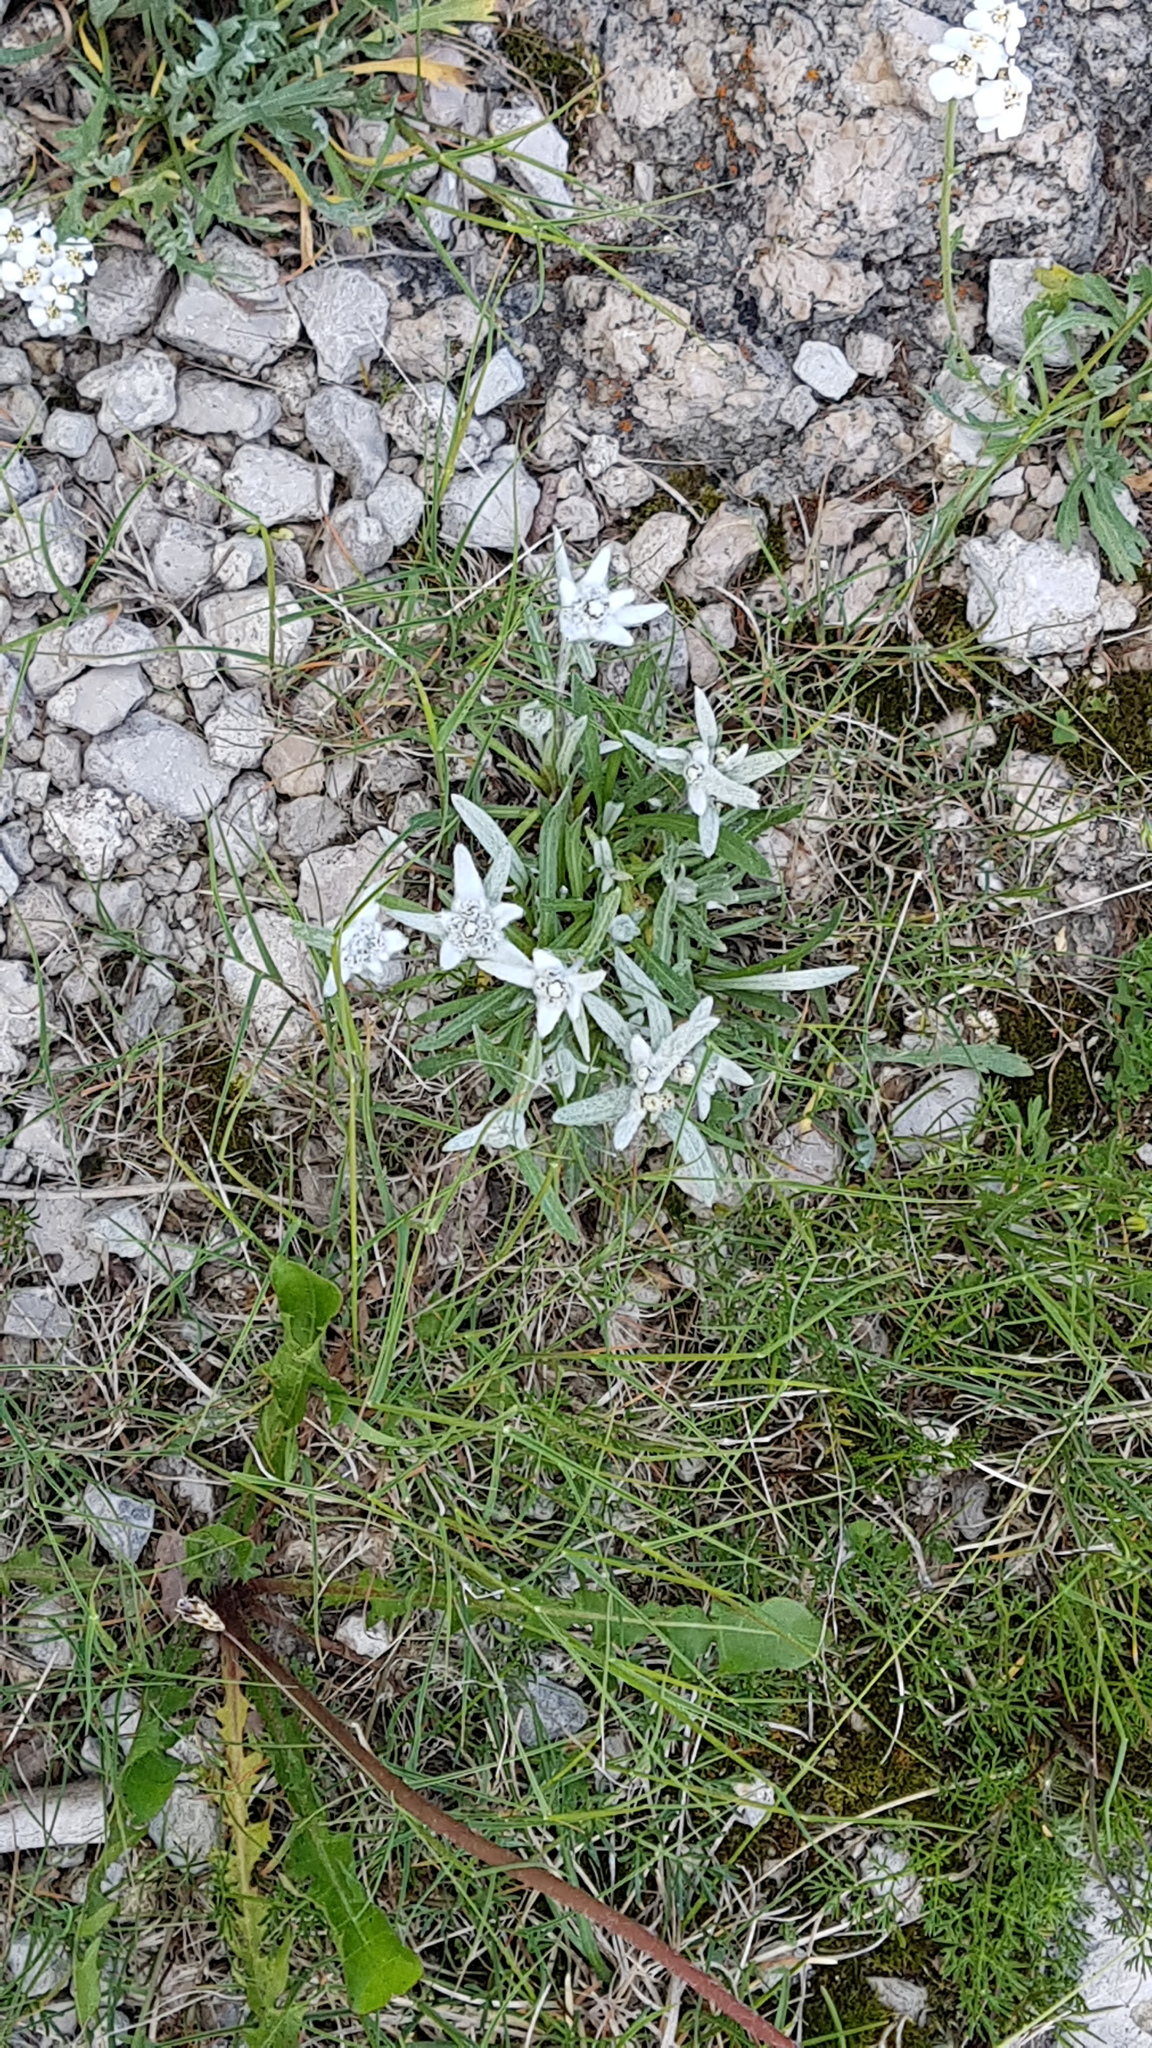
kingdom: Plantae
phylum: Tracheophyta
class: Magnoliopsida
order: Asterales
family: Asteraceae
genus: Leontopodium
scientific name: Leontopodium nivale
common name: Edelweiss
